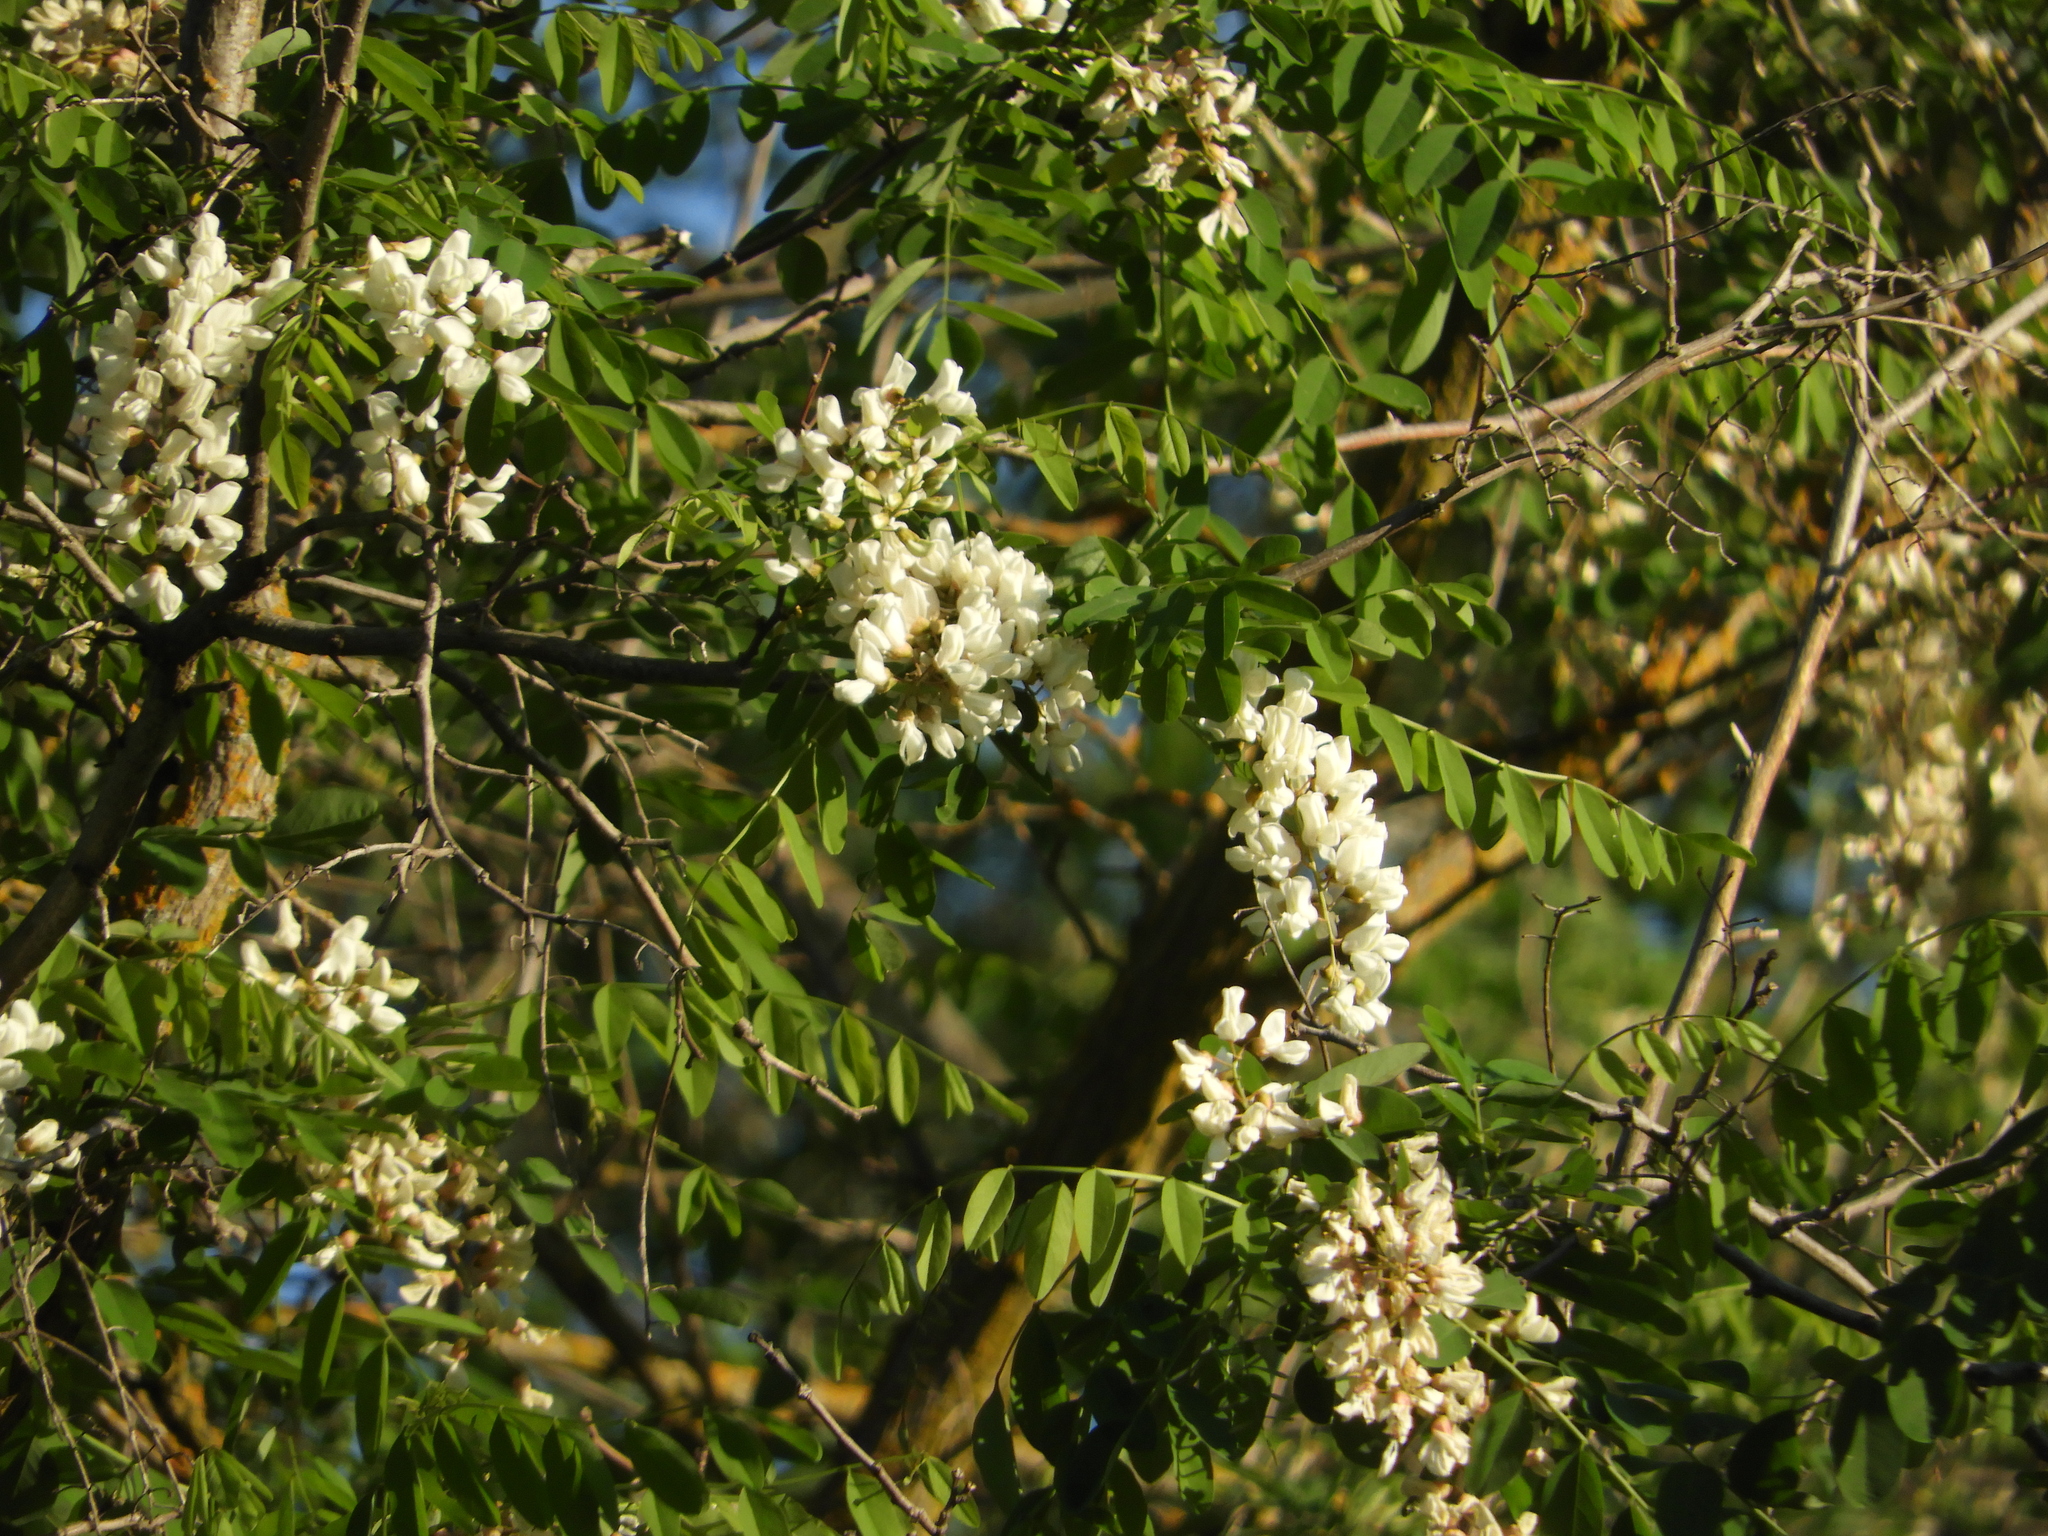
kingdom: Plantae
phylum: Tracheophyta
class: Magnoliopsida
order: Fabales
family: Fabaceae
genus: Robinia
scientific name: Robinia pseudoacacia
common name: Black locust
